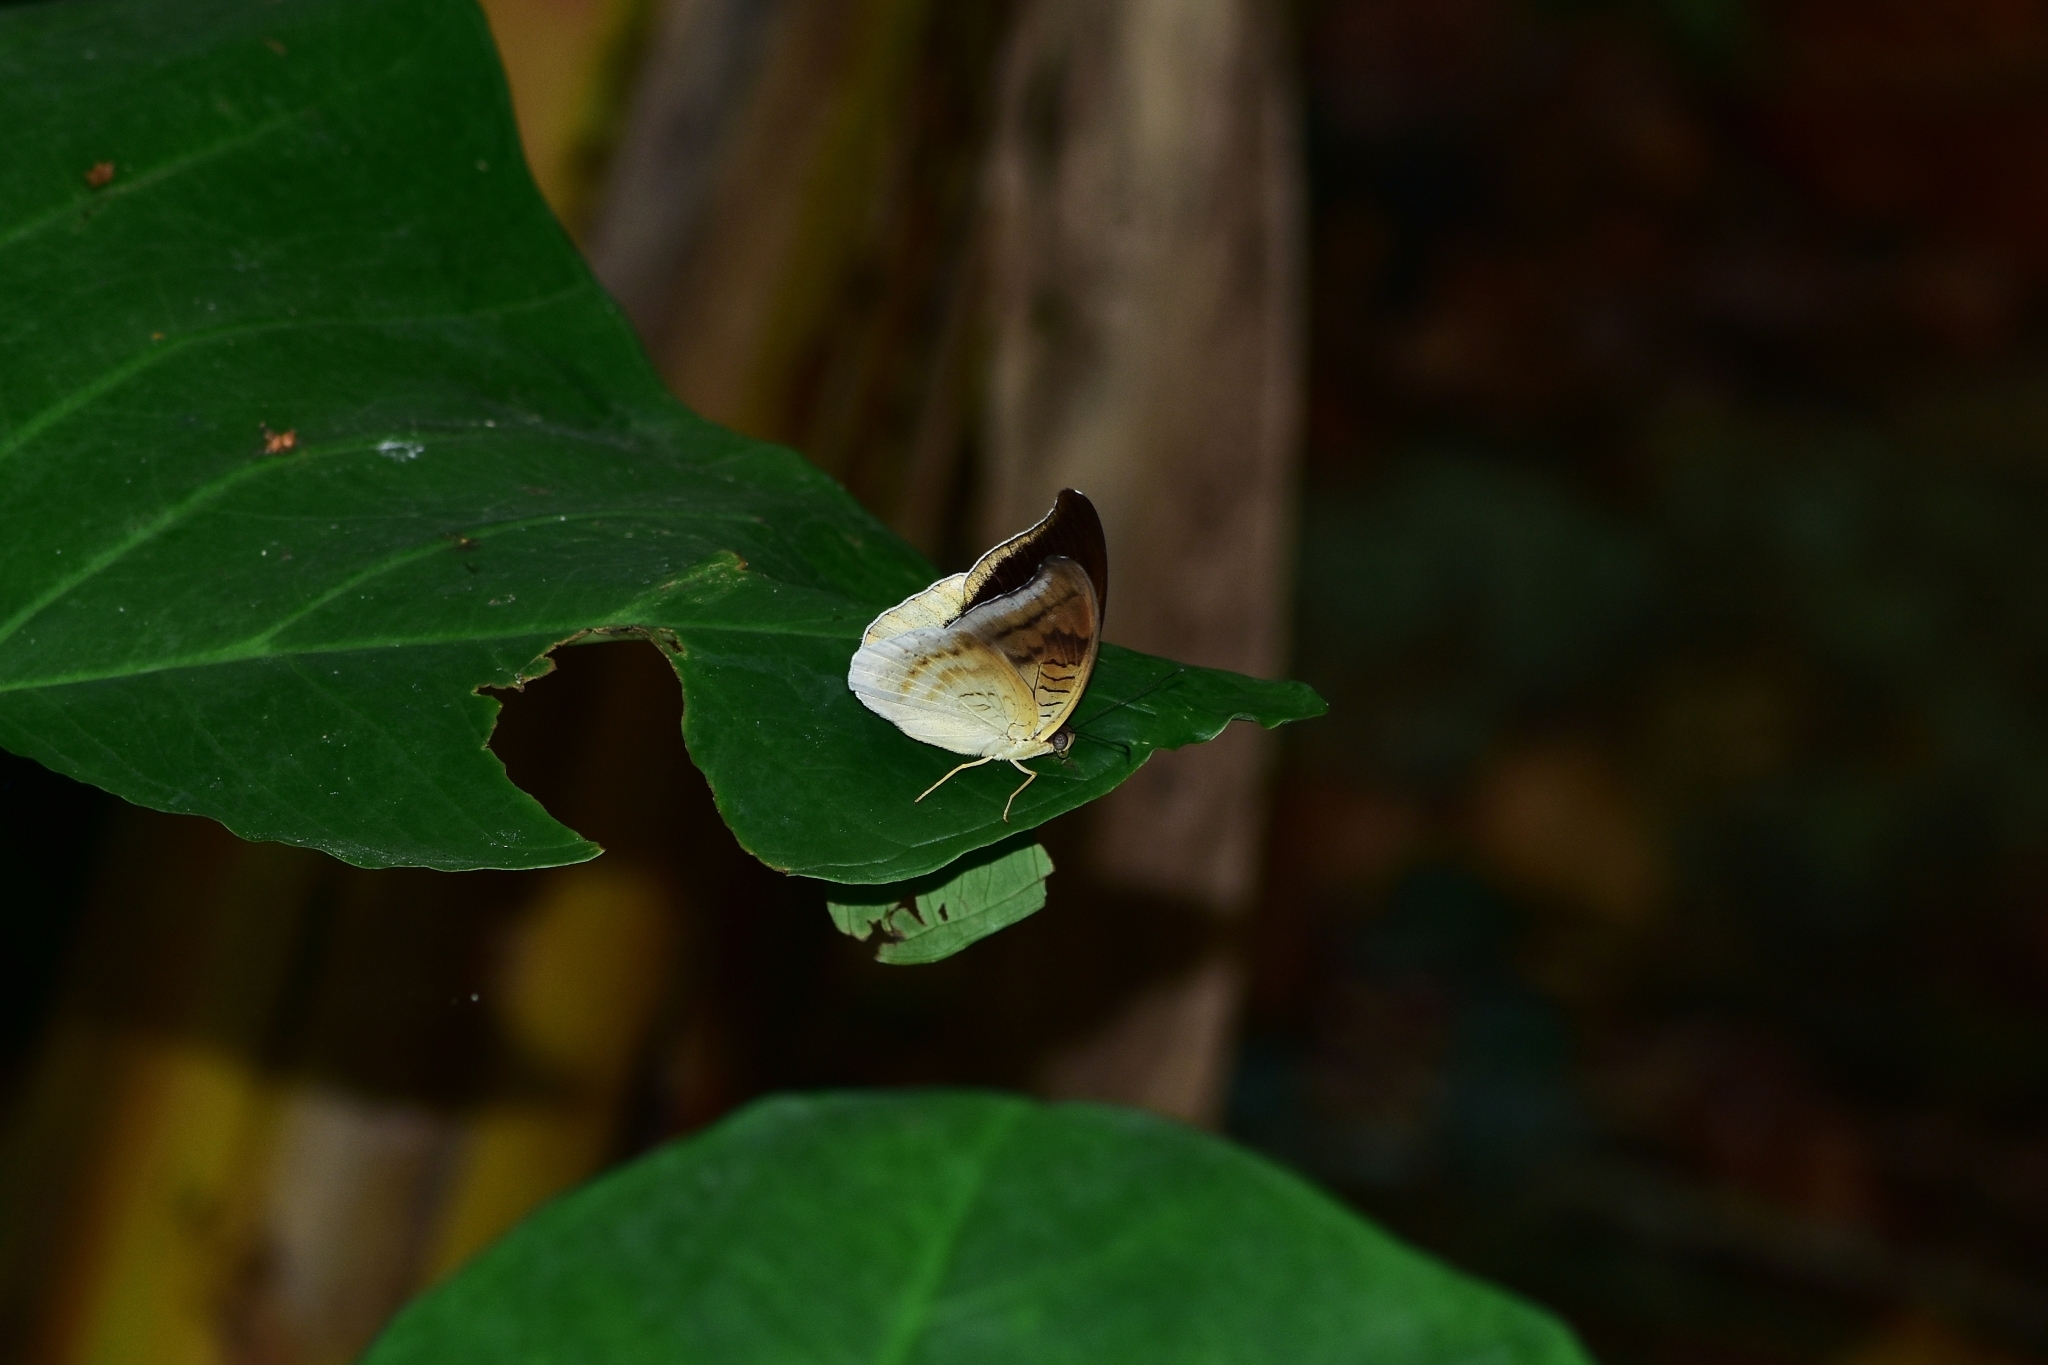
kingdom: Animalia
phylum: Arthropoda
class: Insecta
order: Lepidoptera
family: Nymphalidae
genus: Tanaecia
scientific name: Tanaecia lepidea
